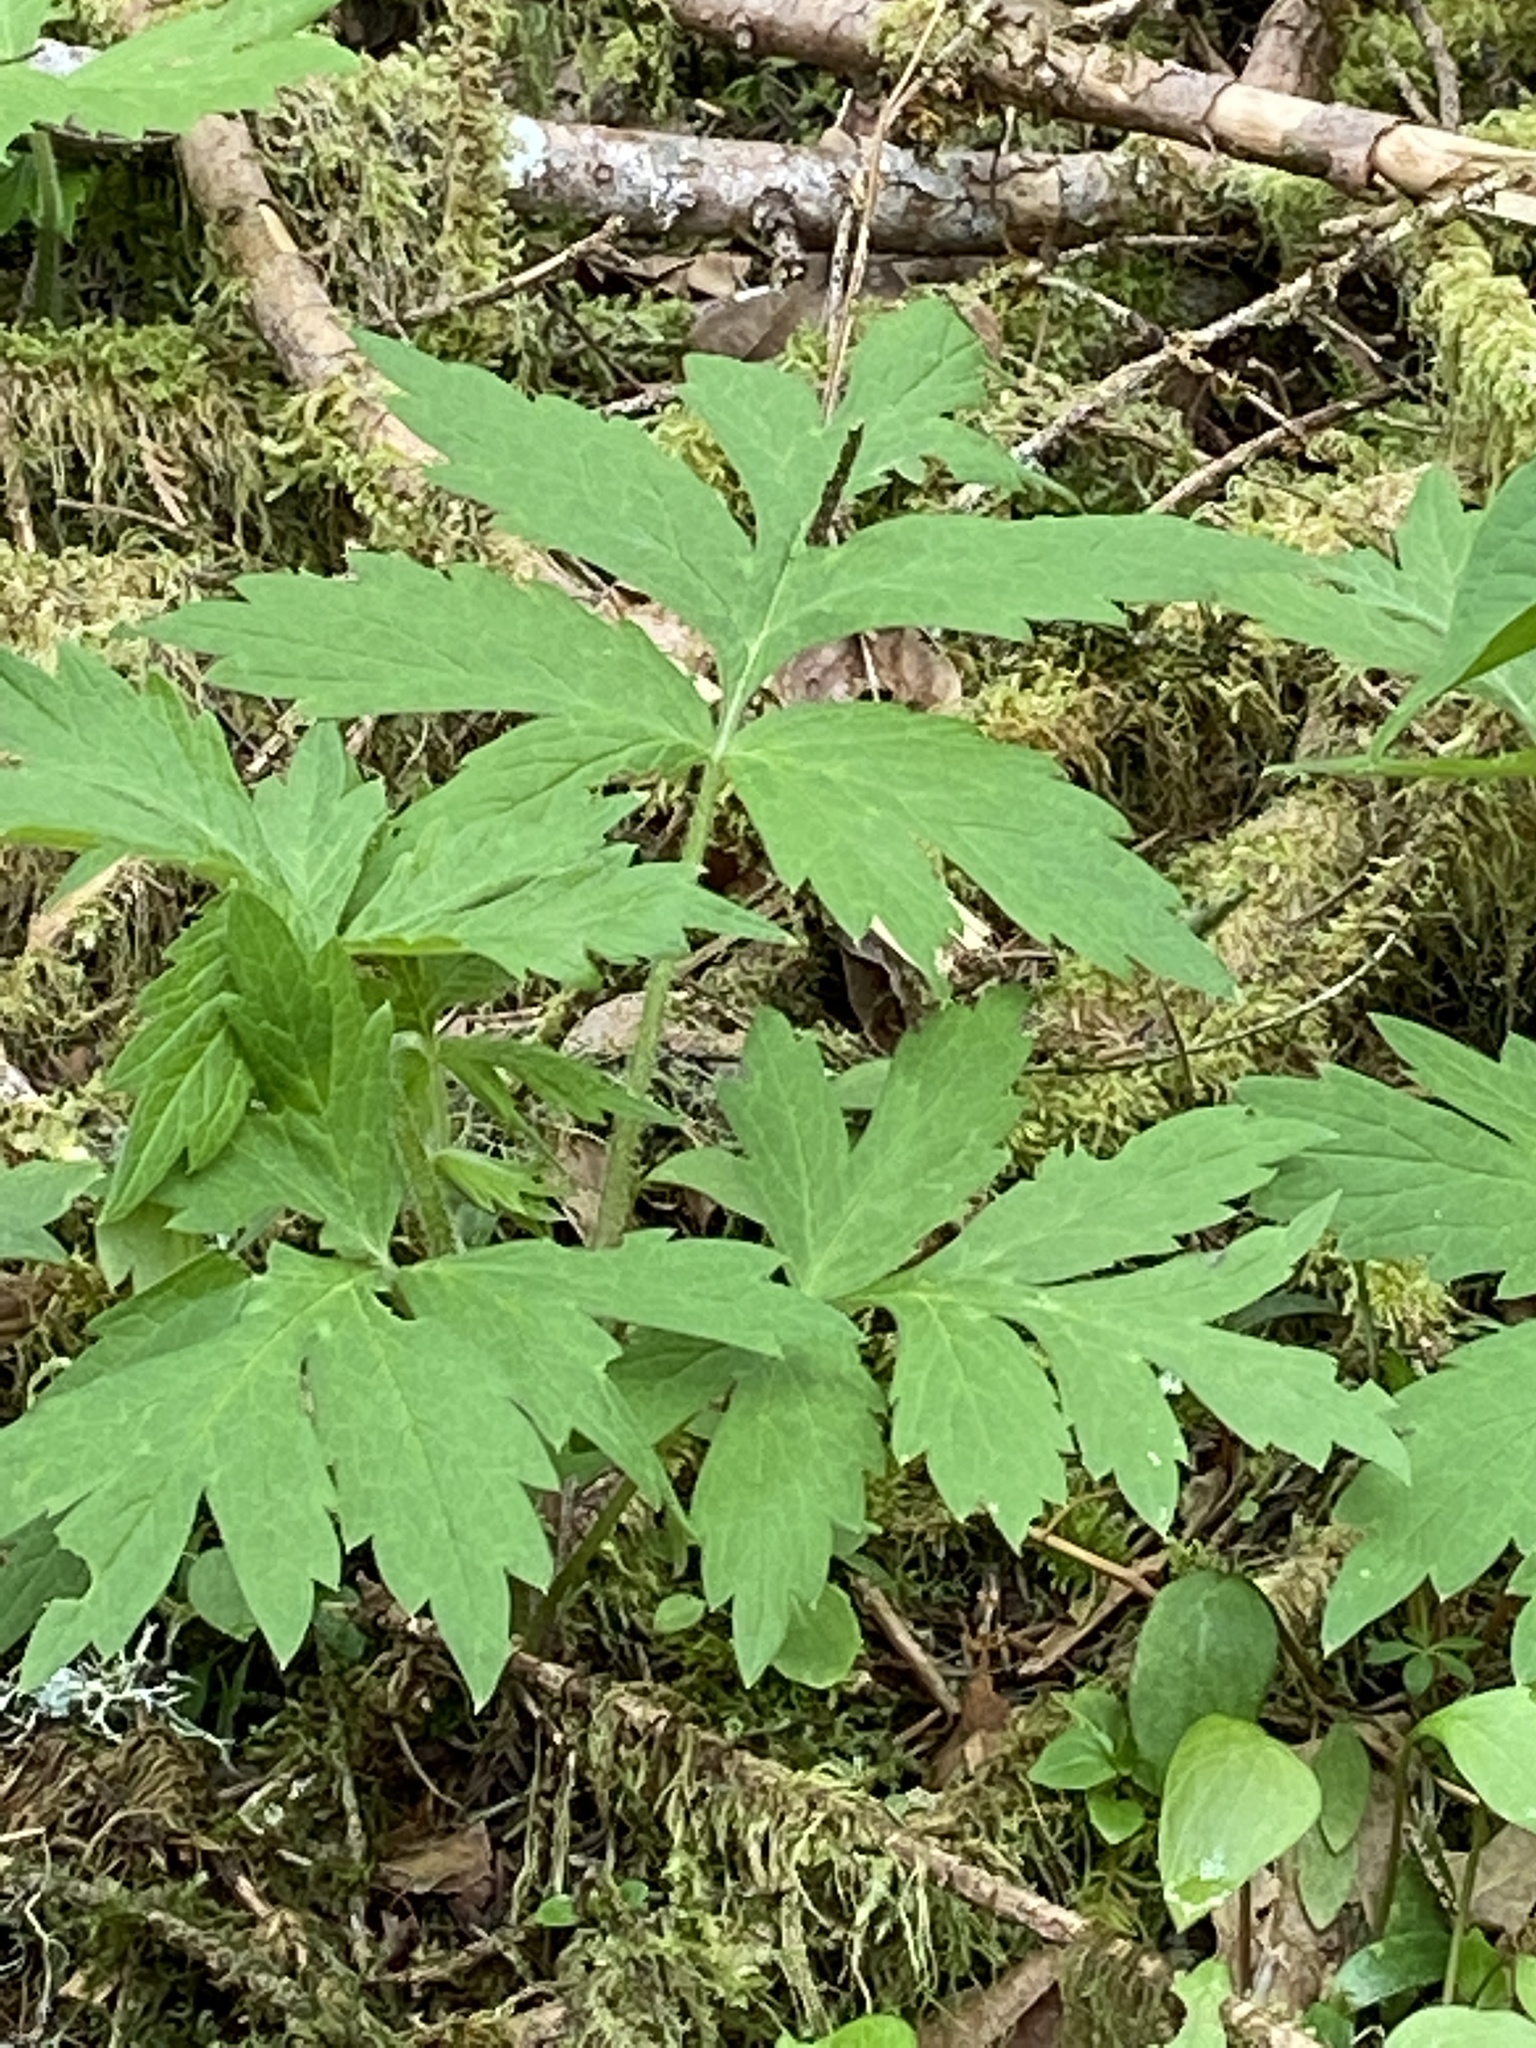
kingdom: Plantae
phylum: Tracheophyta
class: Magnoliopsida
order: Boraginales
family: Hydrophyllaceae
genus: Hydrophyllum
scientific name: Hydrophyllum tenuipes
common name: Pacific waterleaf
